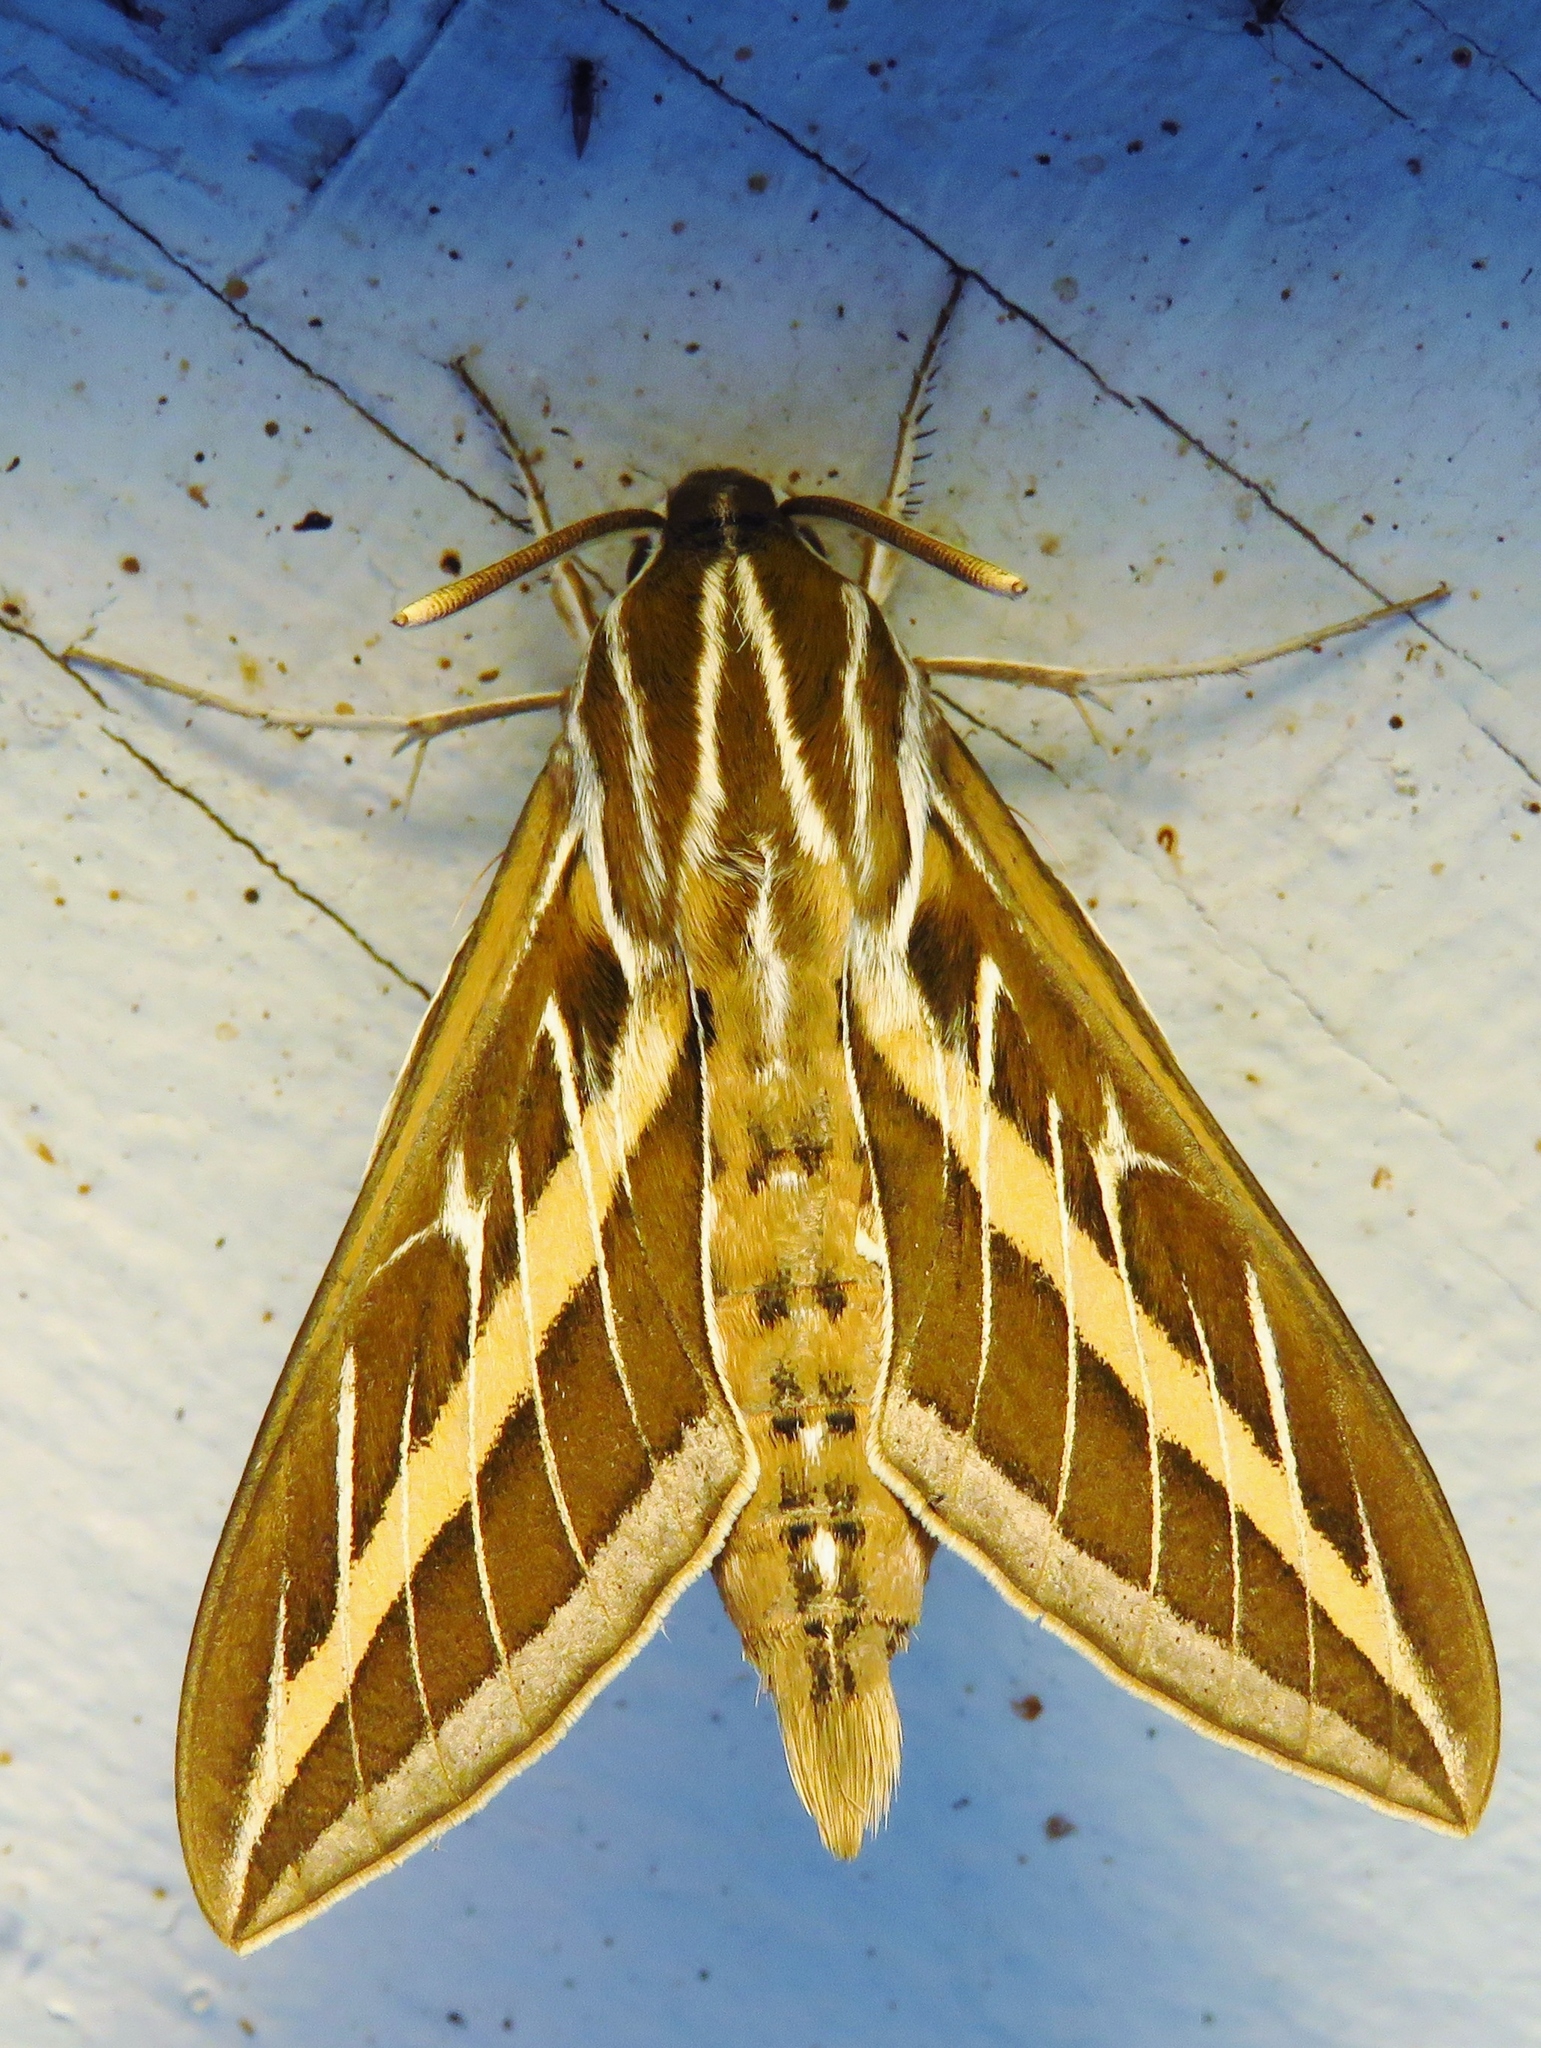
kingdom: Animalia
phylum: Arthropoda
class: Insecta
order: Lepidoptera
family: Sphingidae
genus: Hyles
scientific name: Hyles lineata
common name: White-lined sphinx
